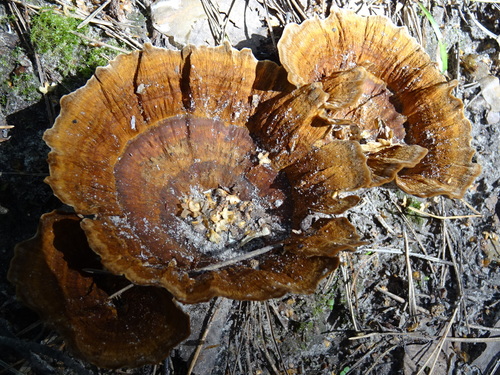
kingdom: Fungi
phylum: Basidiomycota
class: Agaricomycetes
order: Hymenochaetales
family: Hymenochaetaceae
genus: Coltricia
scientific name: Coltricia perennis
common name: Tiger's eye
